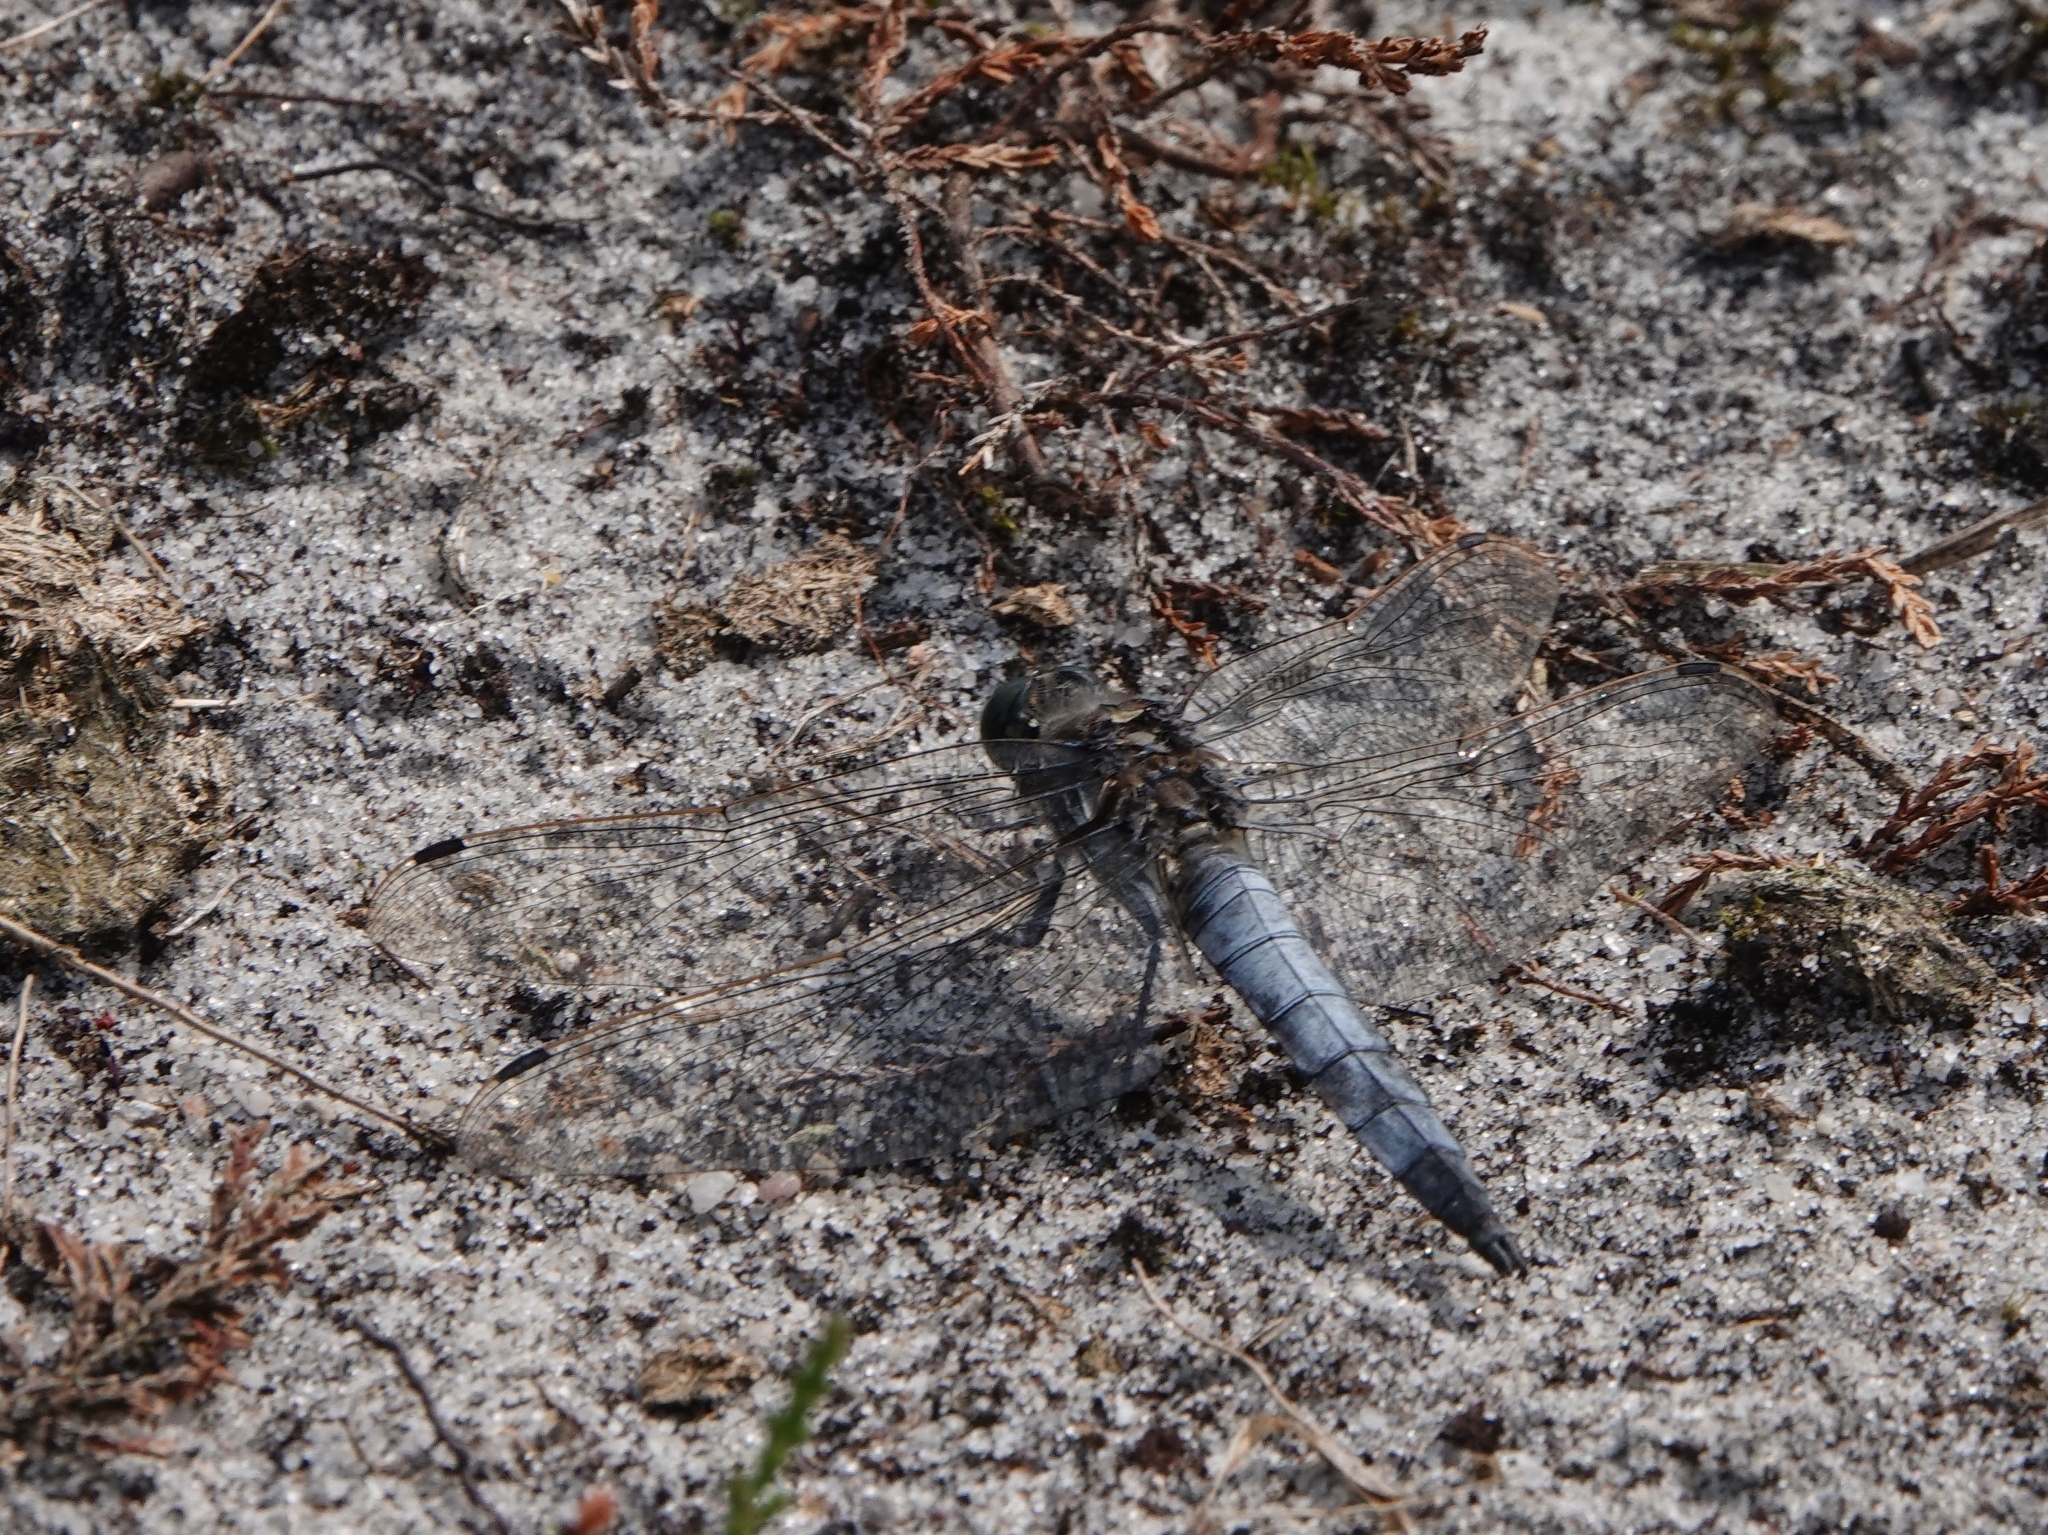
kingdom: Animalia
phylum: Arthropoda
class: Insecta
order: Odonata
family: Libellulidae
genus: Orthetrum
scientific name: Orthetrum cancellatum
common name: Black-tailed skimmer
